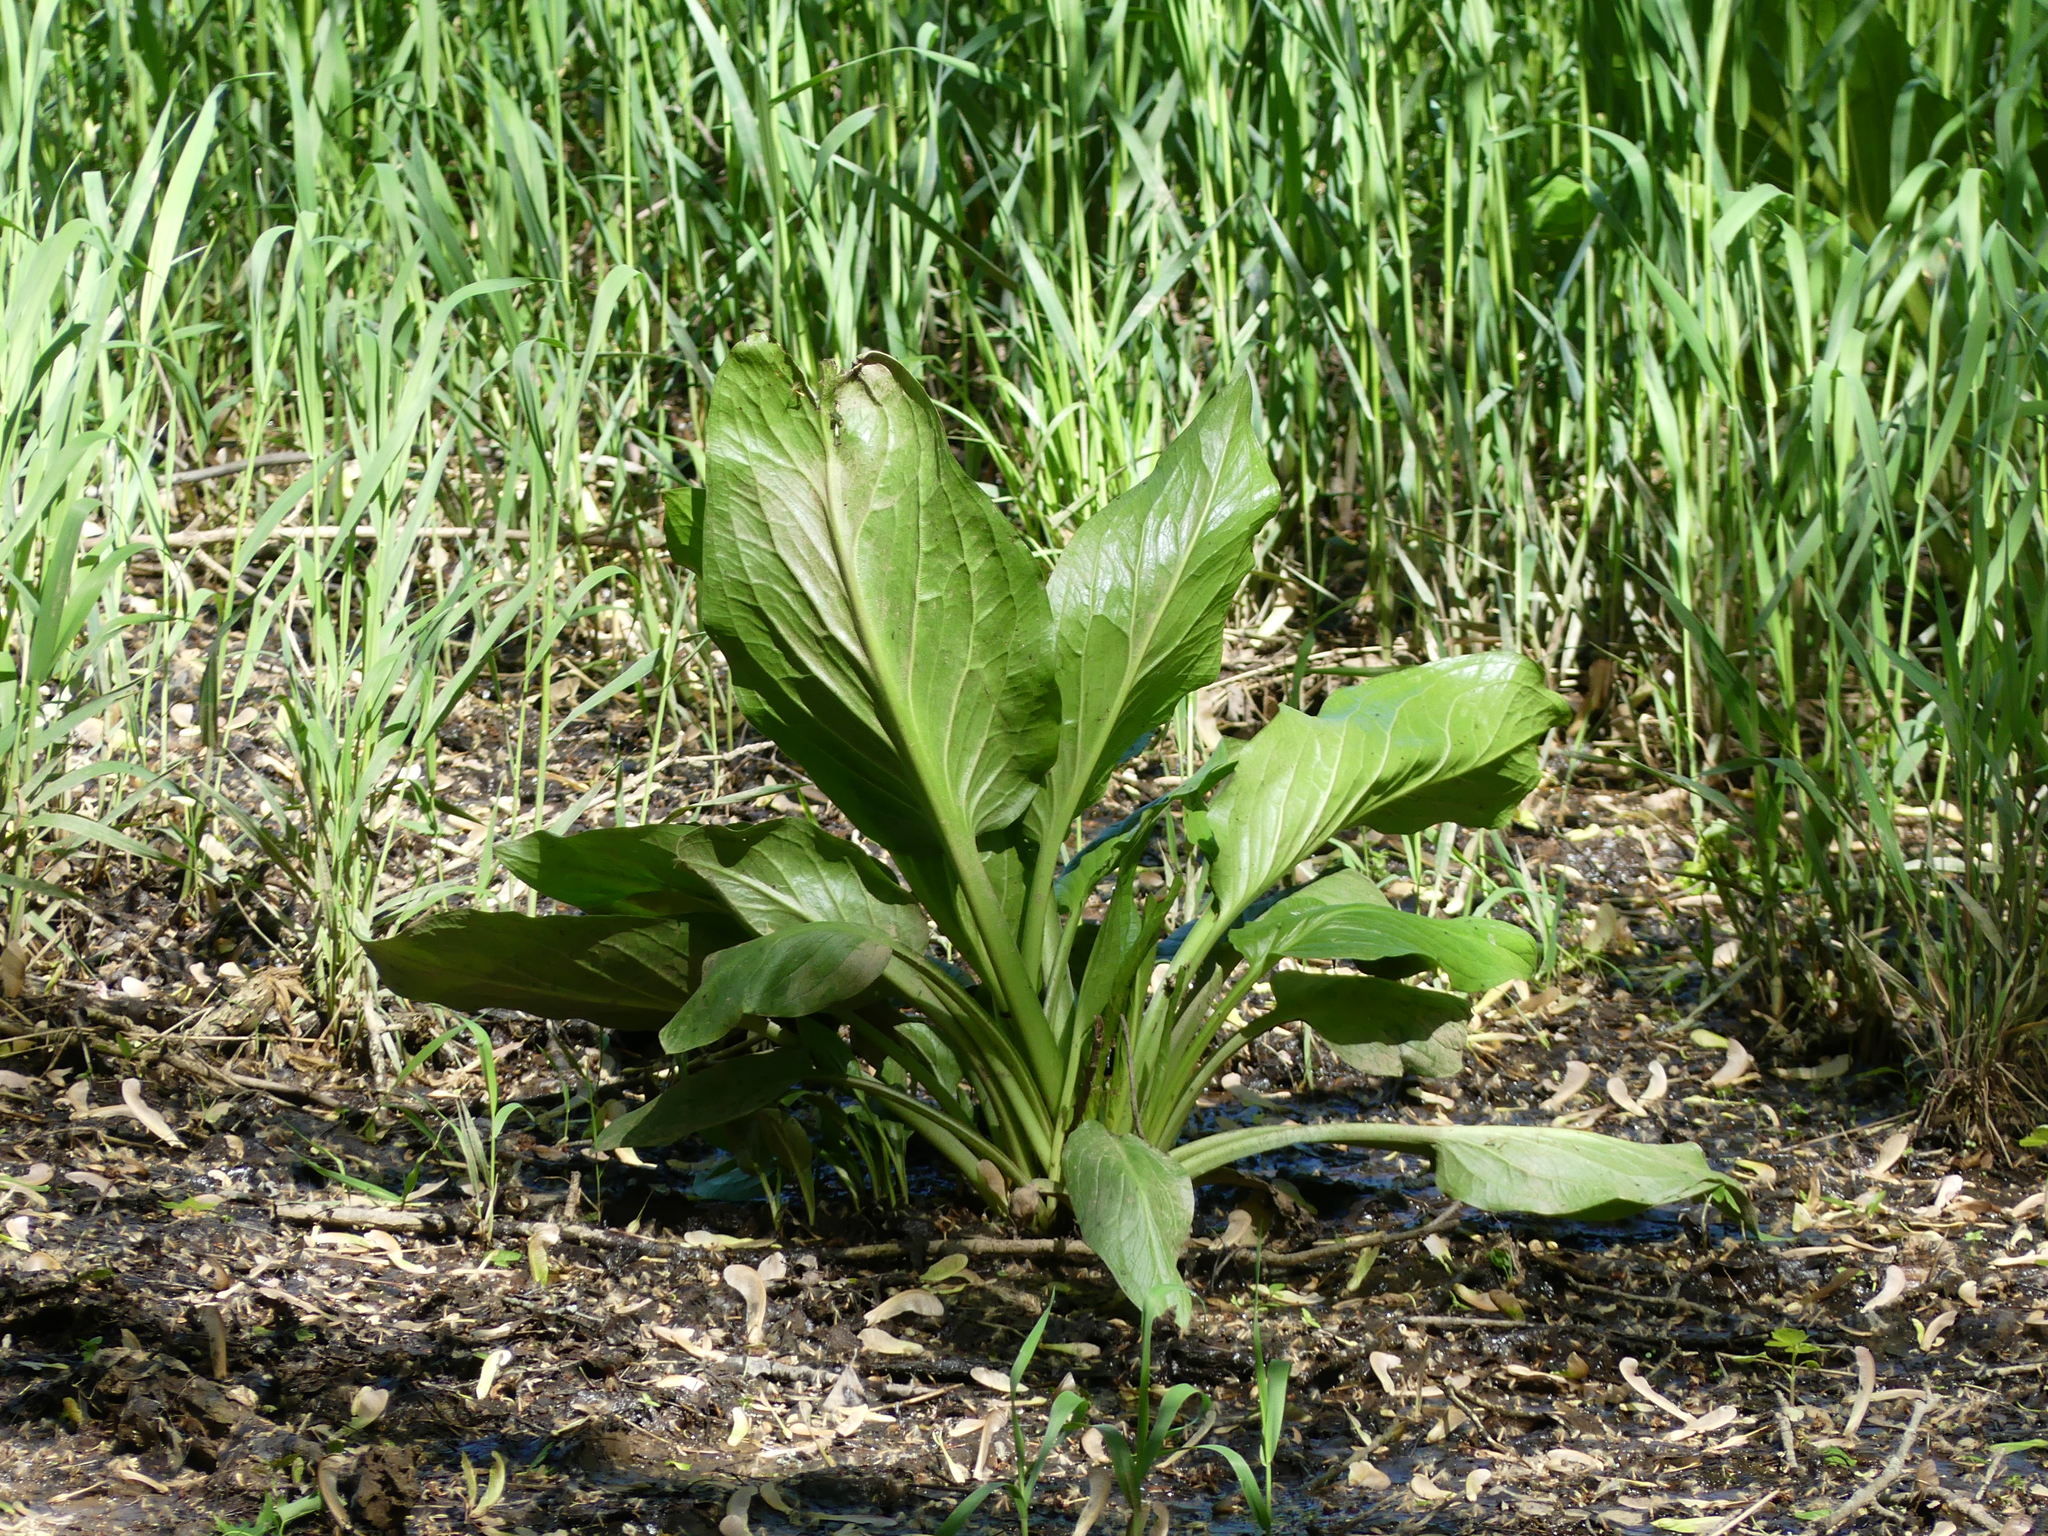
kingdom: Plantae
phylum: Tracheophyta
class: Liliopsida
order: Alismatales
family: Araceae
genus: Symplocarpus
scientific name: Symplocarpus foetidus
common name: Eastern skunk cabbage
